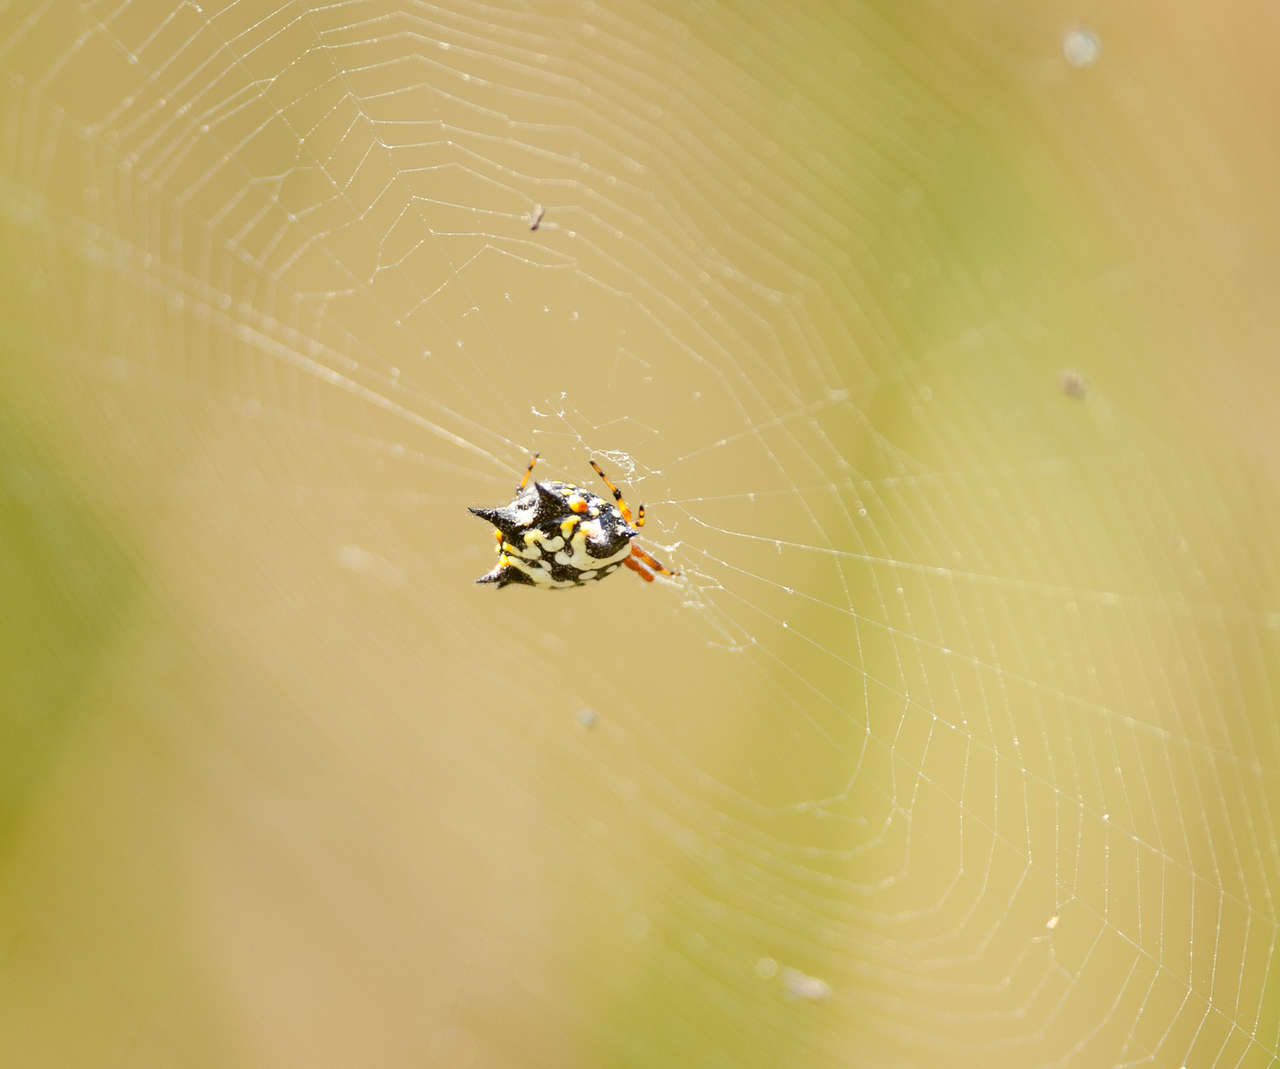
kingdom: Animalia
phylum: Arthropoda
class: Arachnida
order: Araneae
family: Araneidae
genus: Austracantha
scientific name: Austracantha minax
